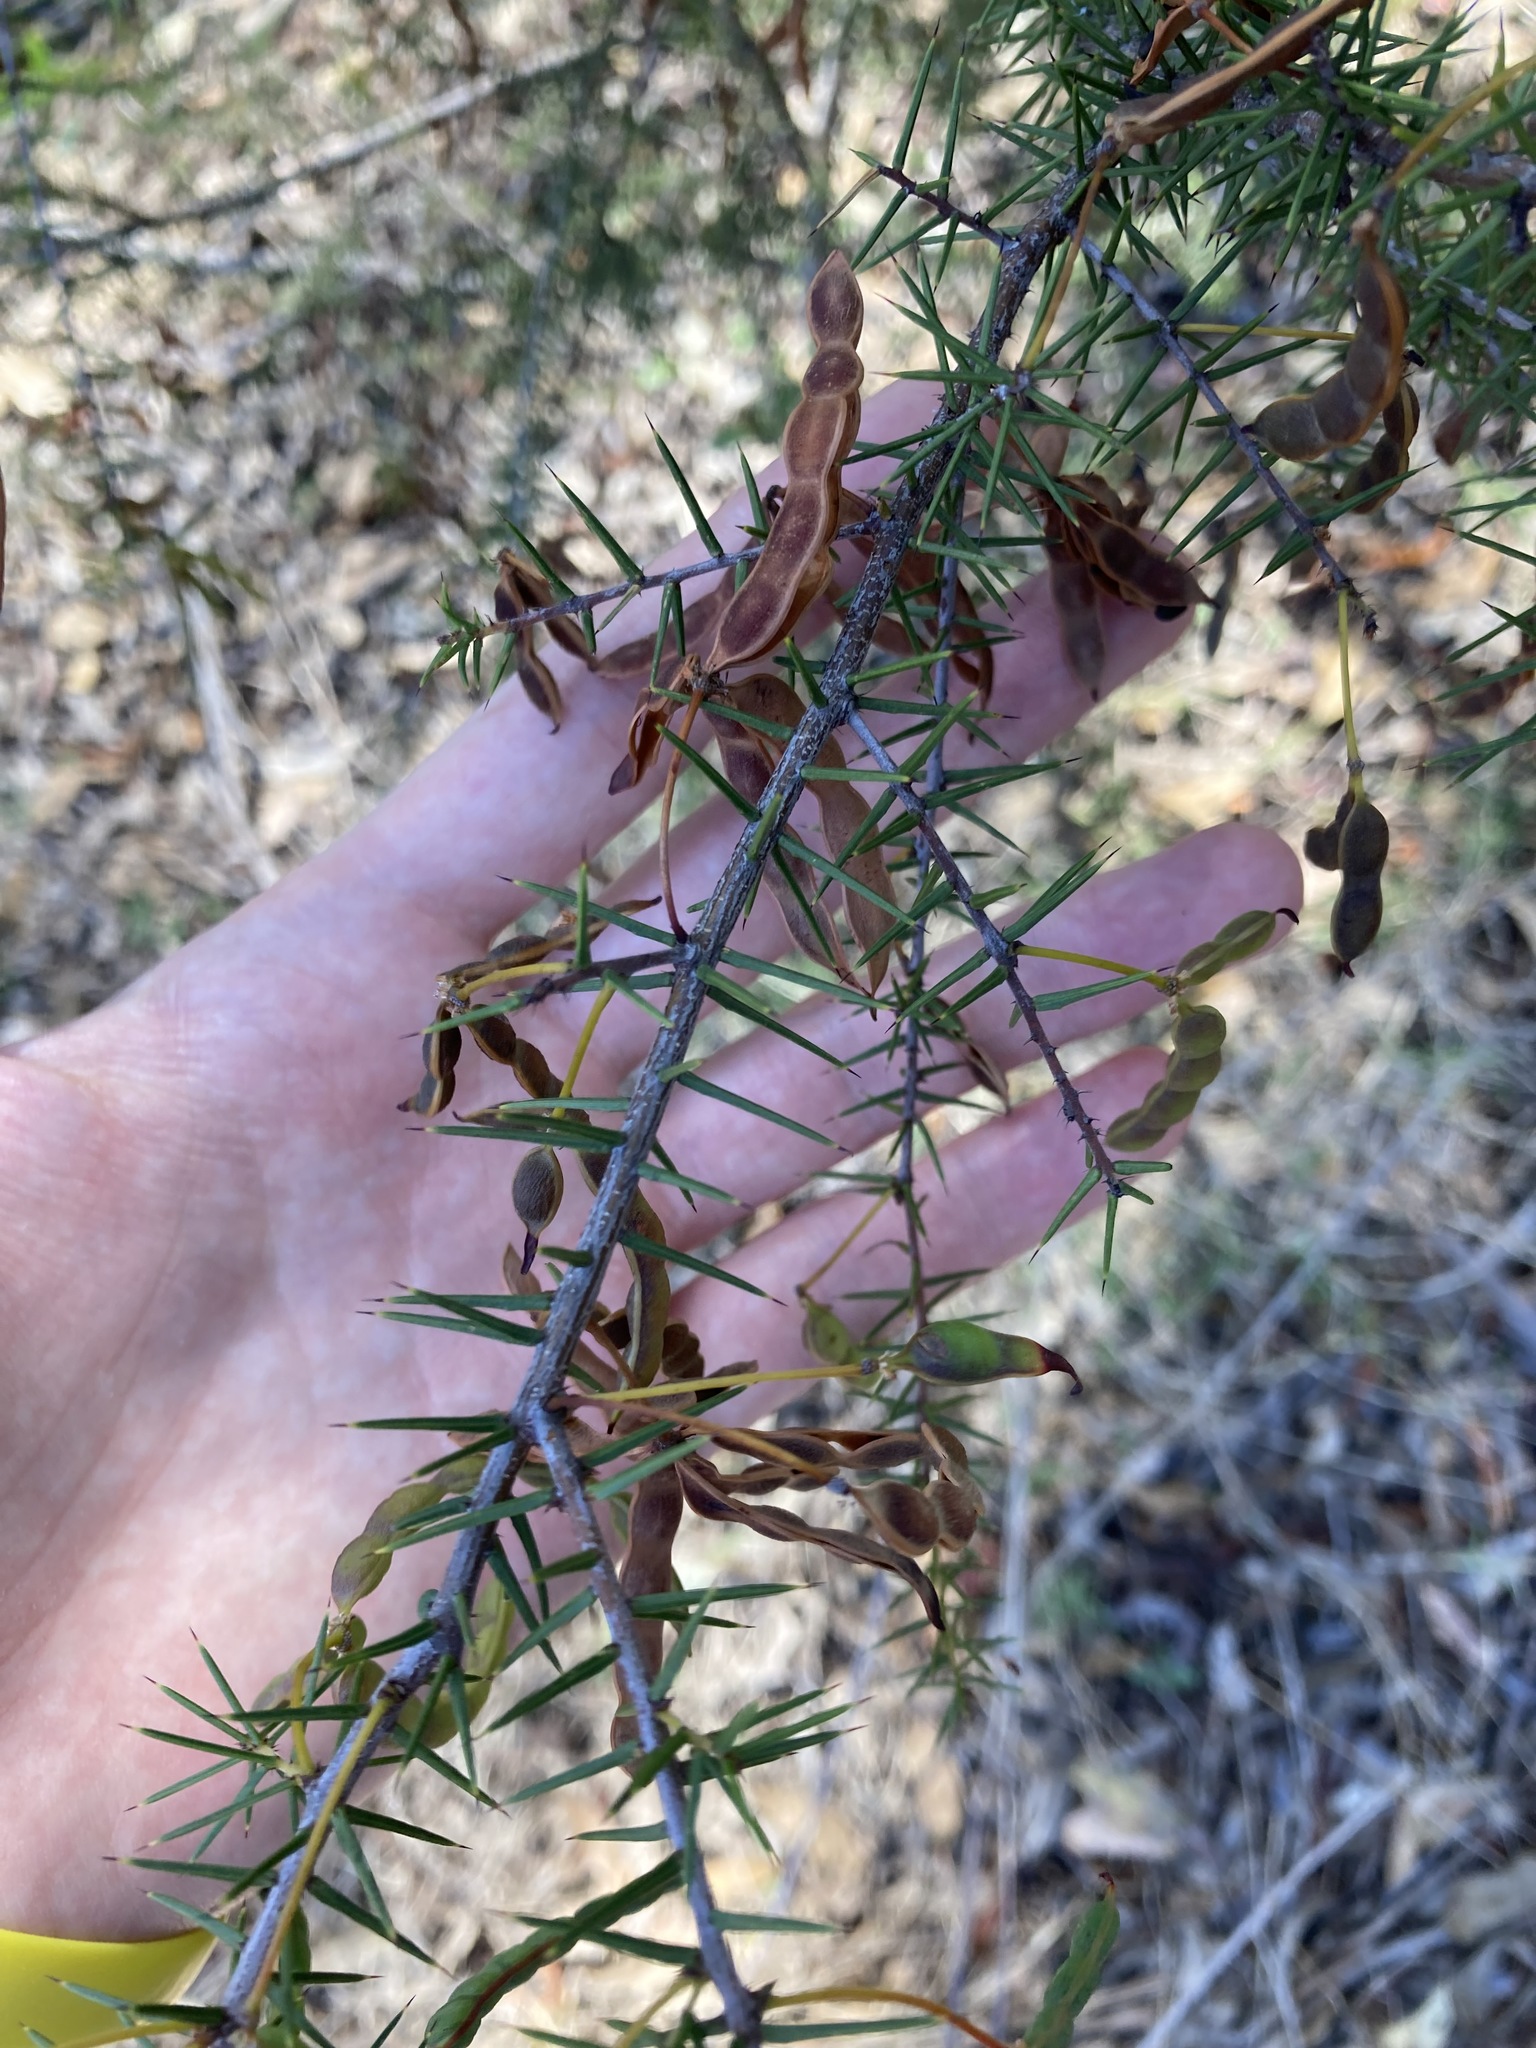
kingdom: Plantae
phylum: Tracheophyta
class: Magnoliopsida
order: Fabales
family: Fabaceae
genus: Acacia
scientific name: Acacia ulicifolia
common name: Juniper wattle
